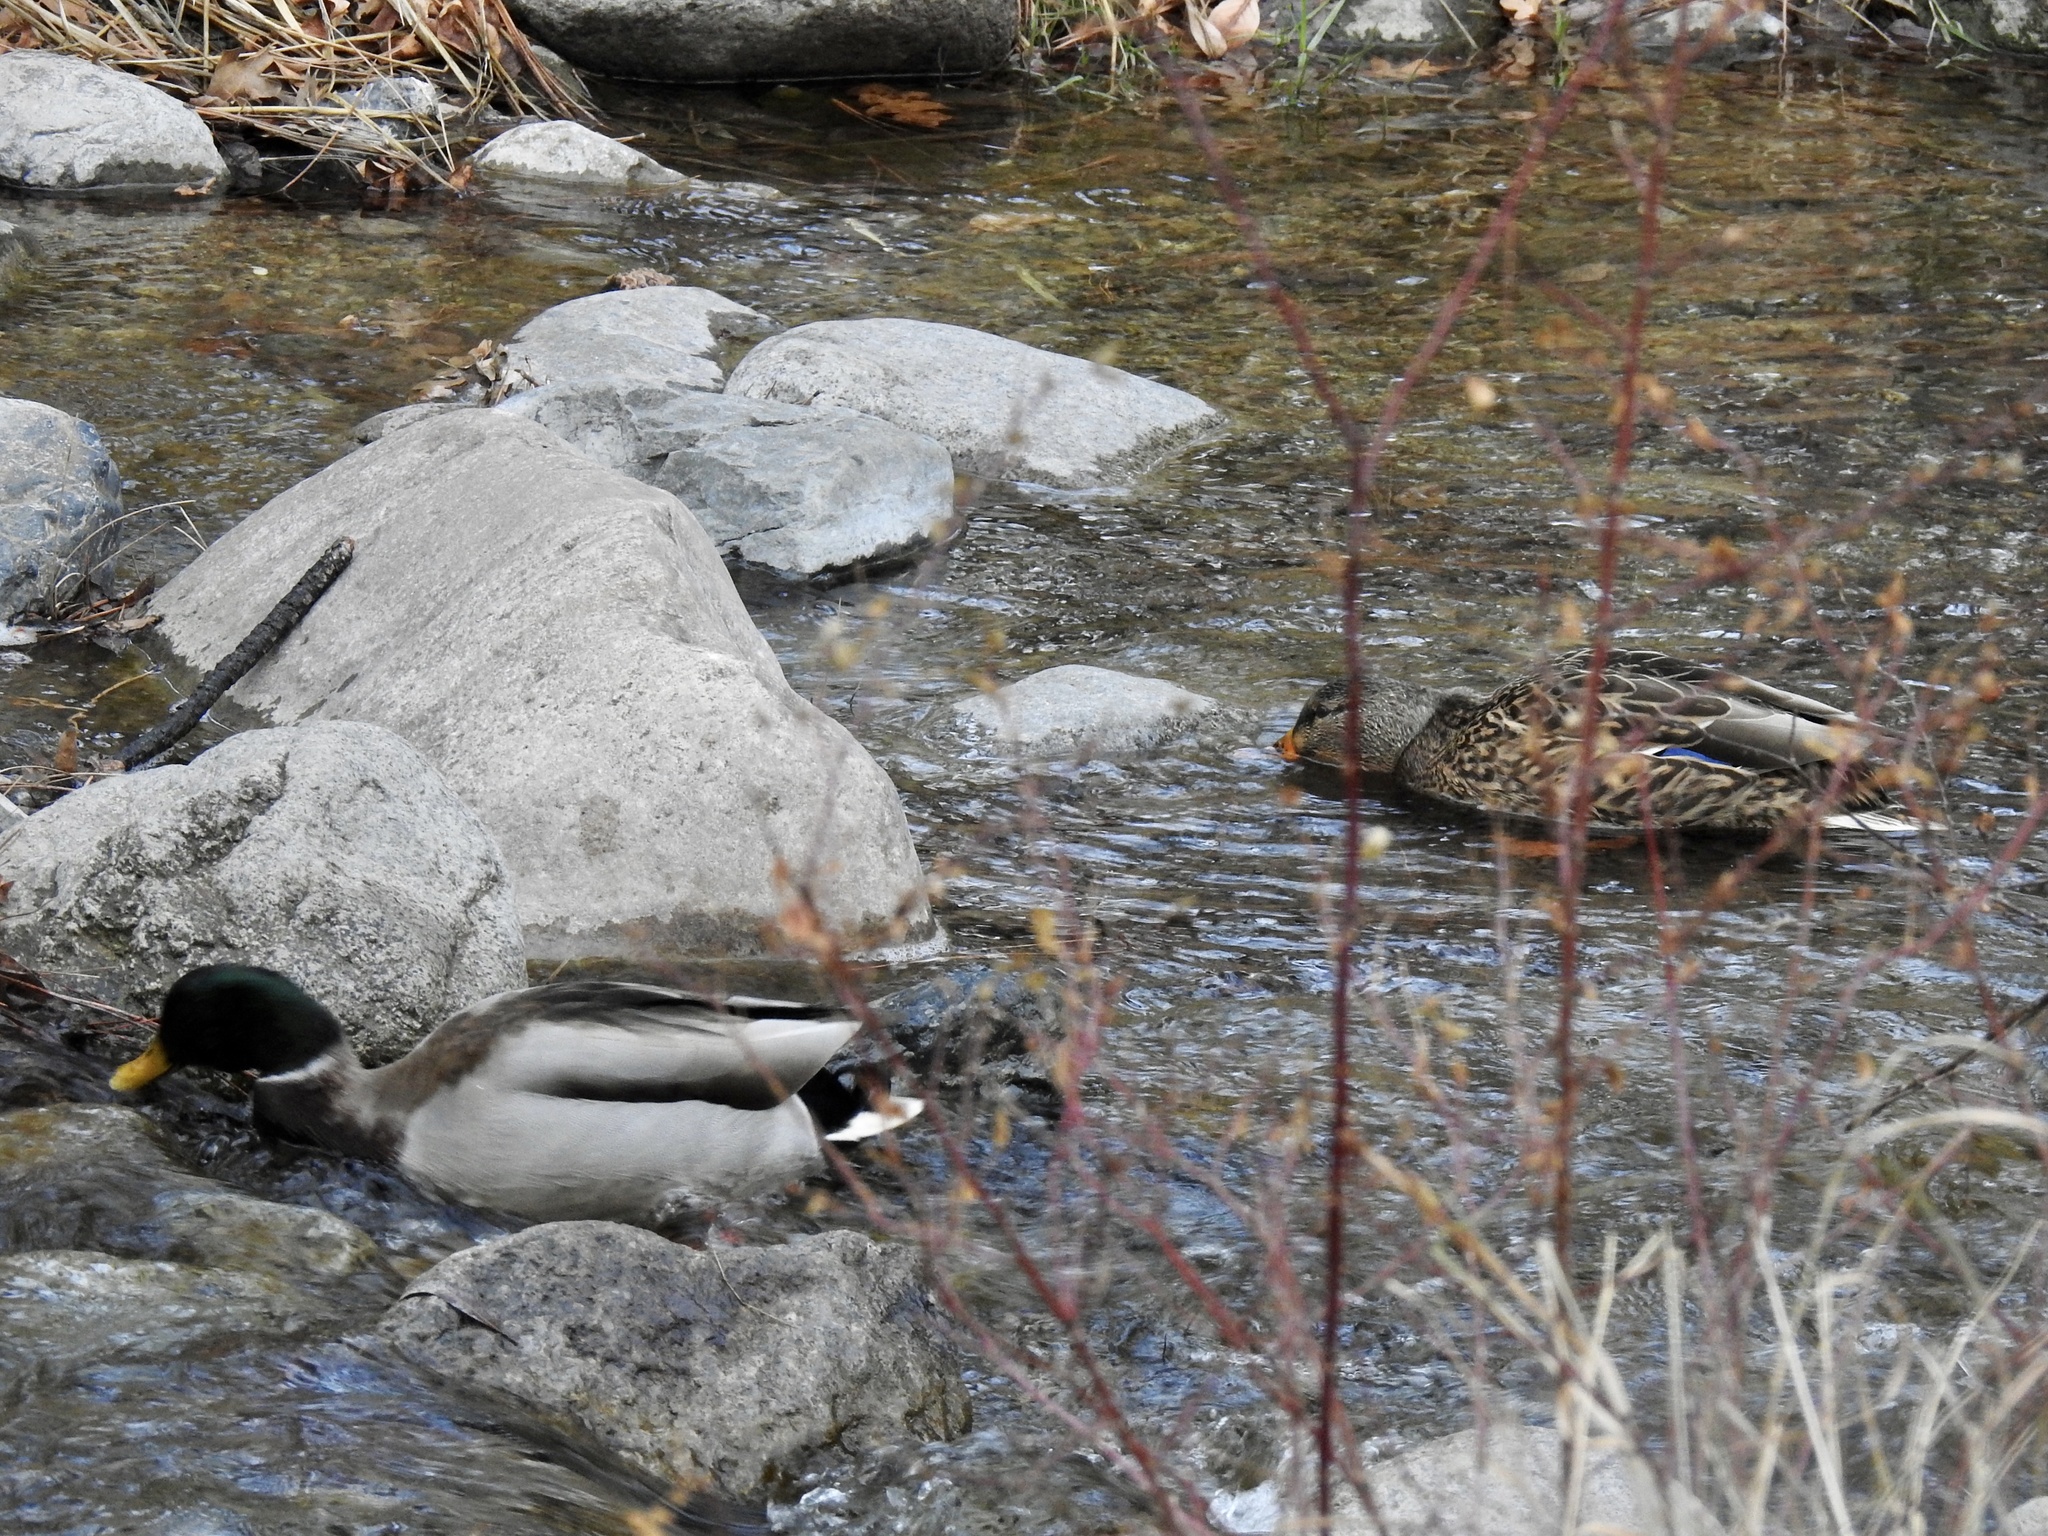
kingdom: Animalia
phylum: Chordata
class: Aves
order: Anseriformes
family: Anatidae
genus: Anas
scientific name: Anas platyrhynchos
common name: Mallard
